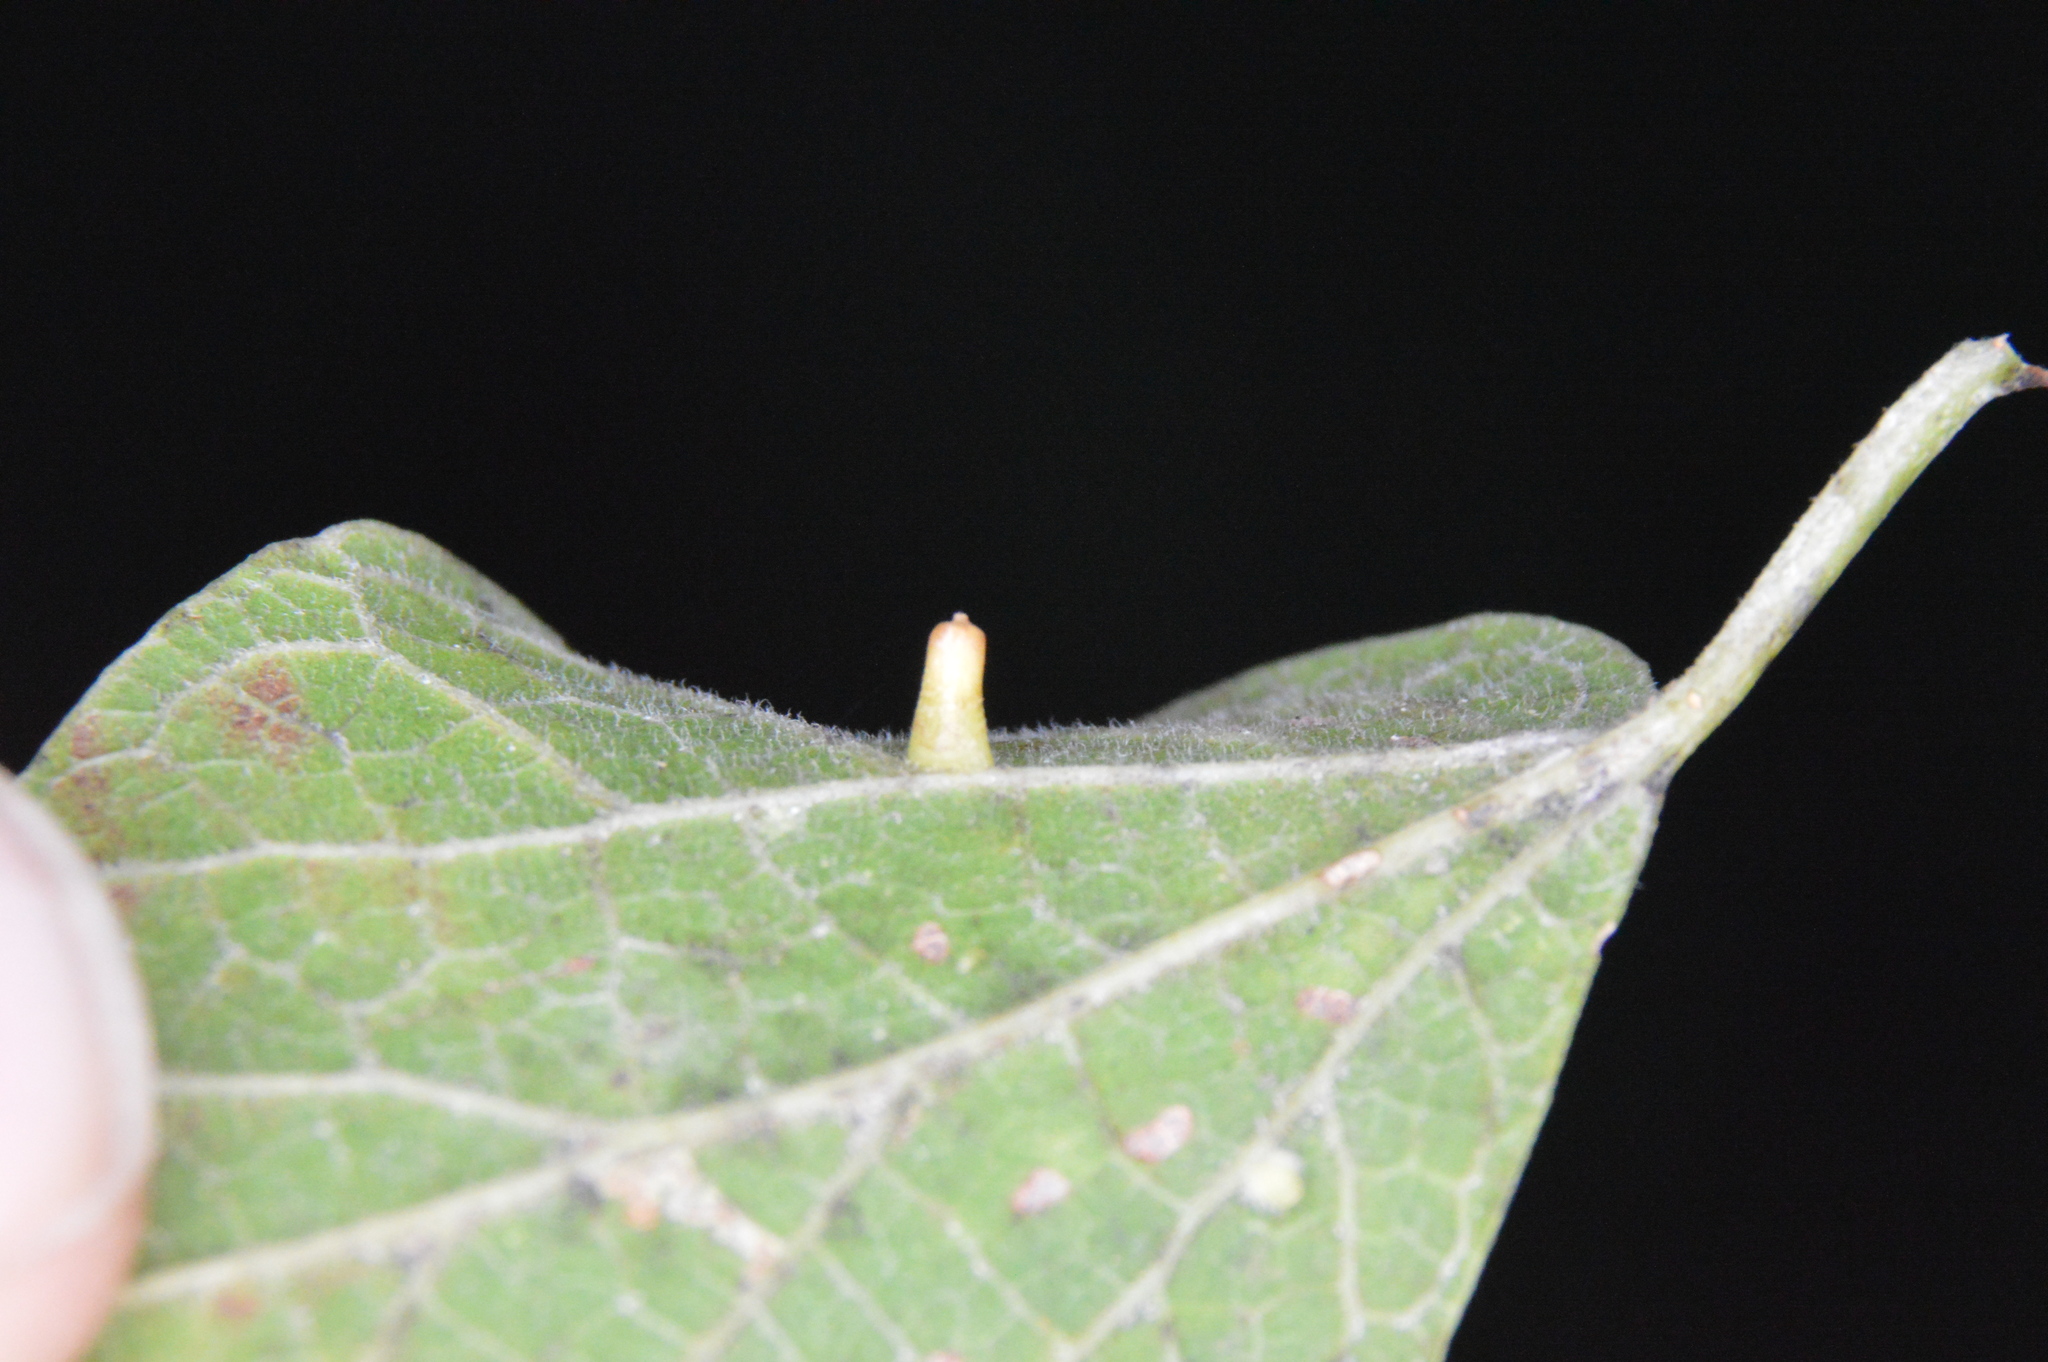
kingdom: Animalia
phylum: Arthropoda
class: Insecta
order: Diptera
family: Cecidomyiidae
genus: Celticecis
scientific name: Celticecis aciculata
